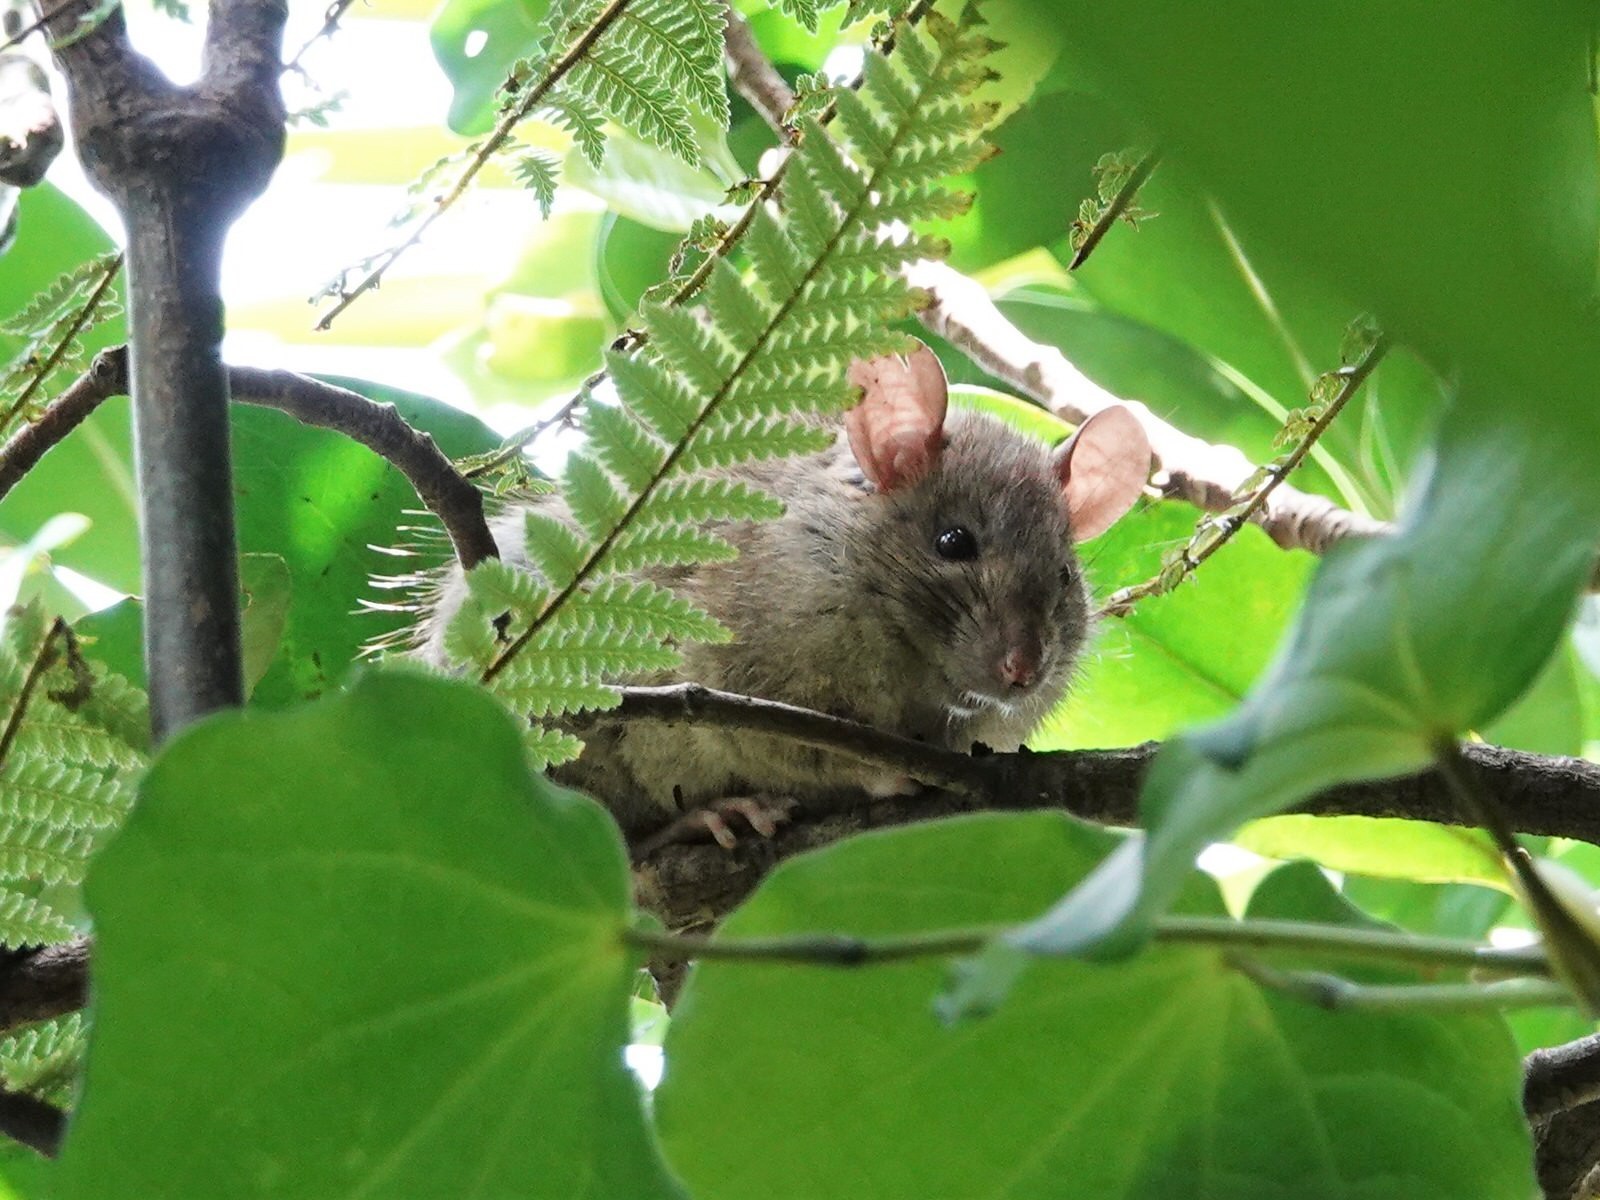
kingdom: Animalia
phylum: Chordata
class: Mammalia
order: Rodentia
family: Muridae
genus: Rattus
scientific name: Rattus rattus
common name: Black rat
